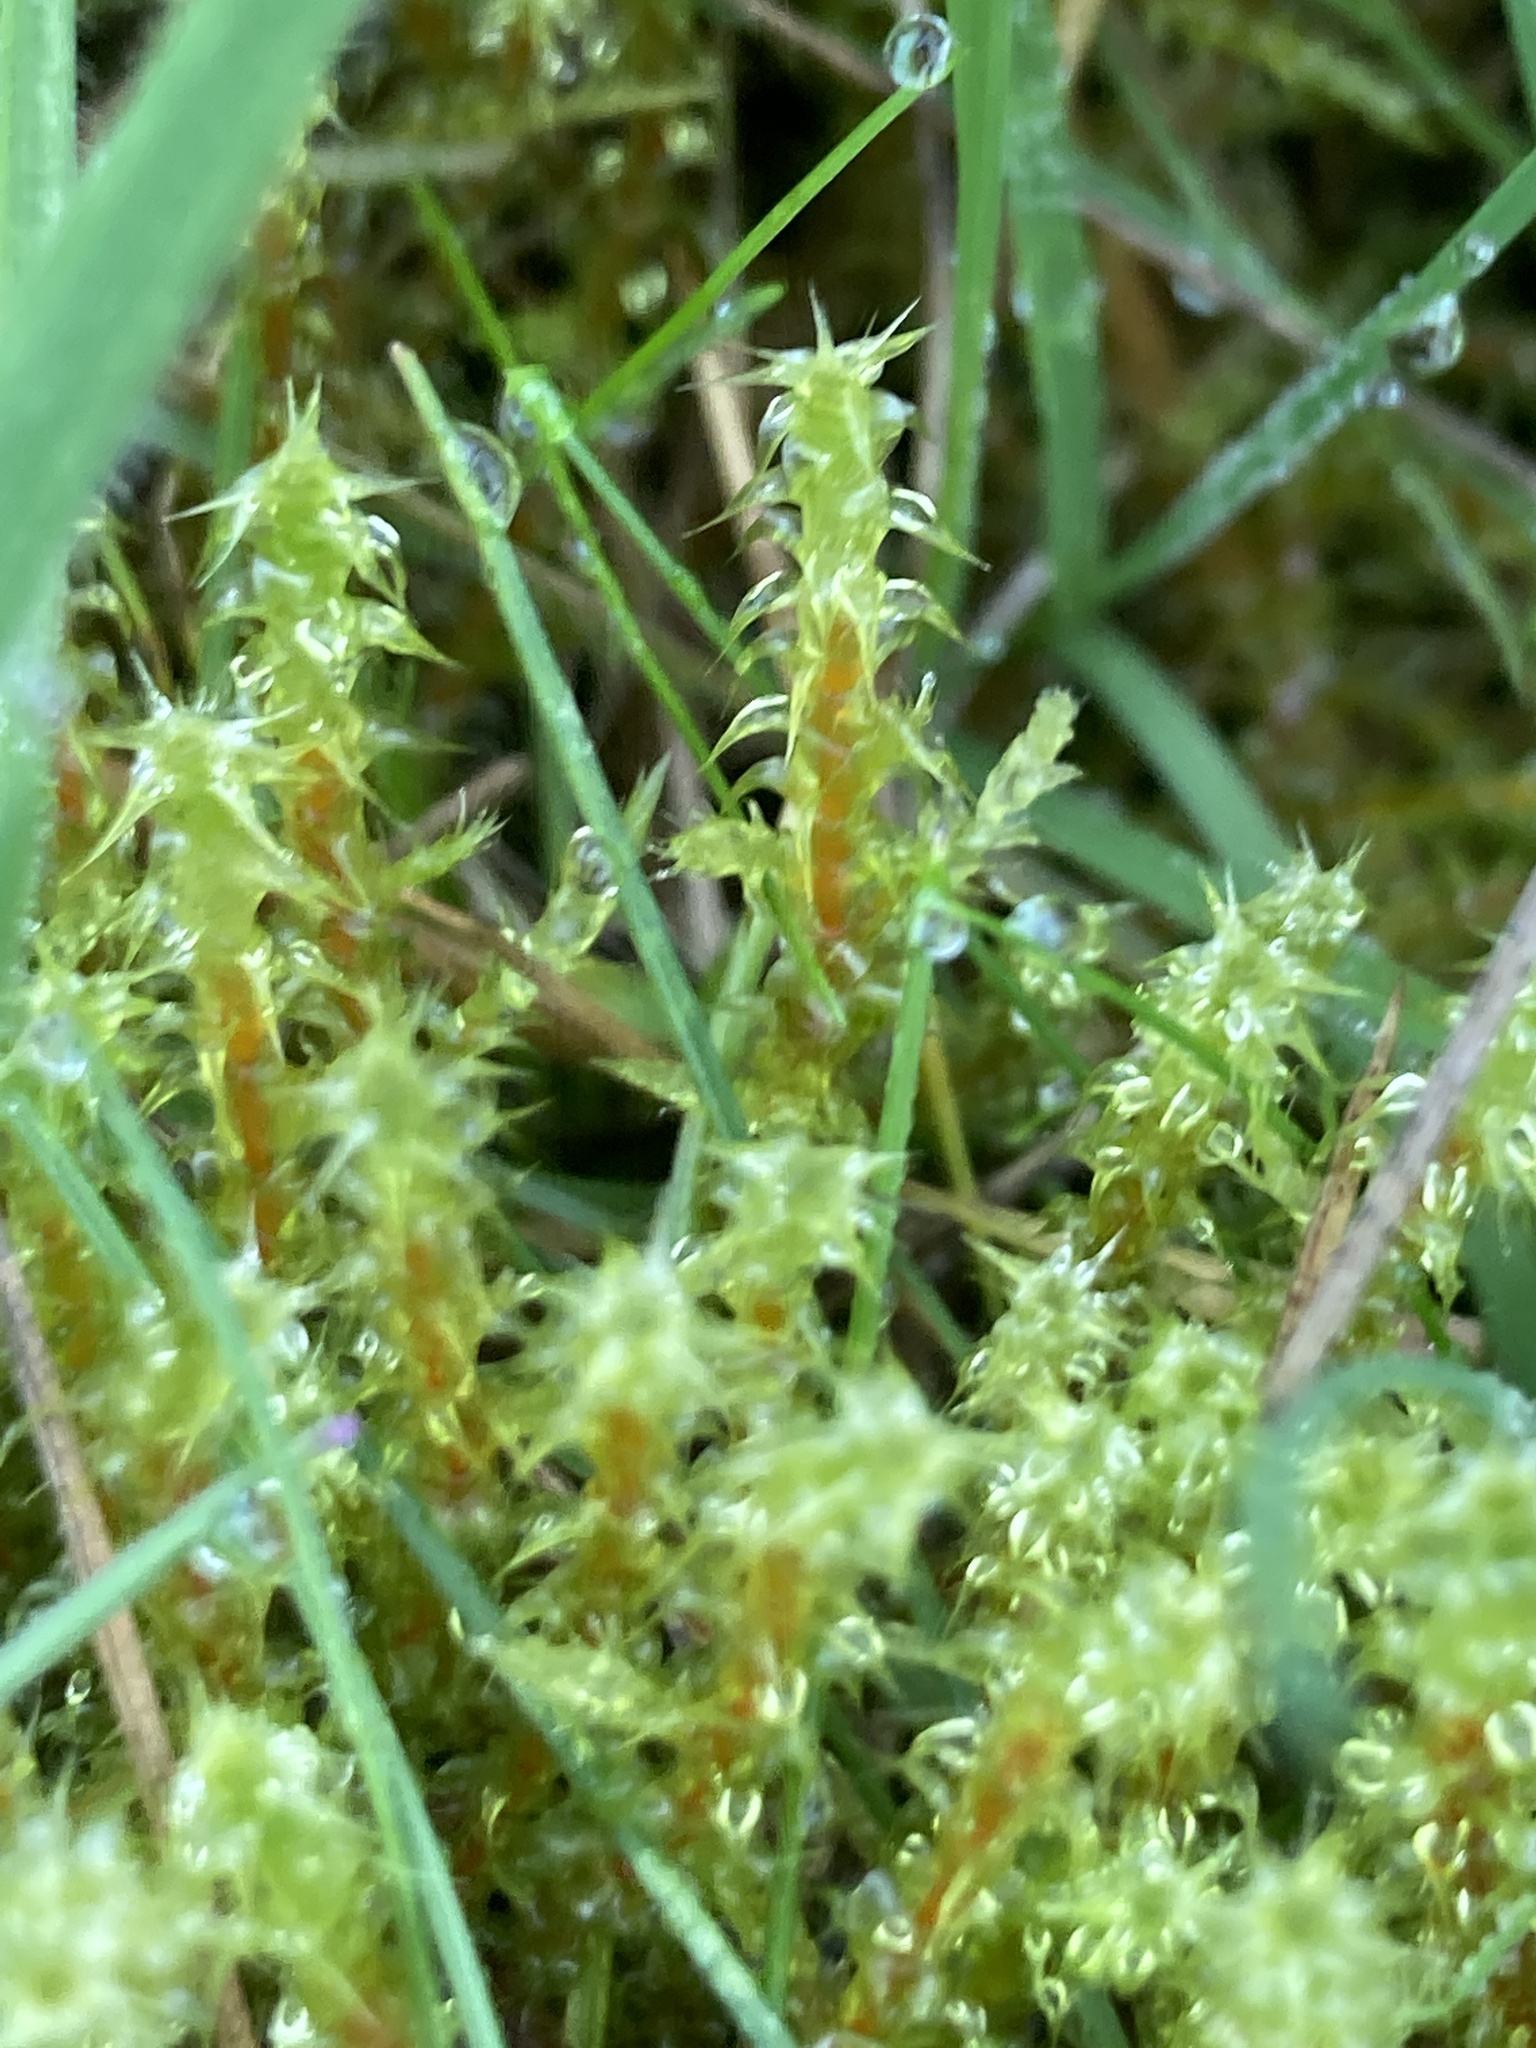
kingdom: Plantae
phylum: Bryophyta
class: Bryopsida
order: Hypnales
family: Hylocomiaceae
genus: Rhytidiadelphus
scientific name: Rhytidiadelphus squarrosus
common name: Springy turf-moss
